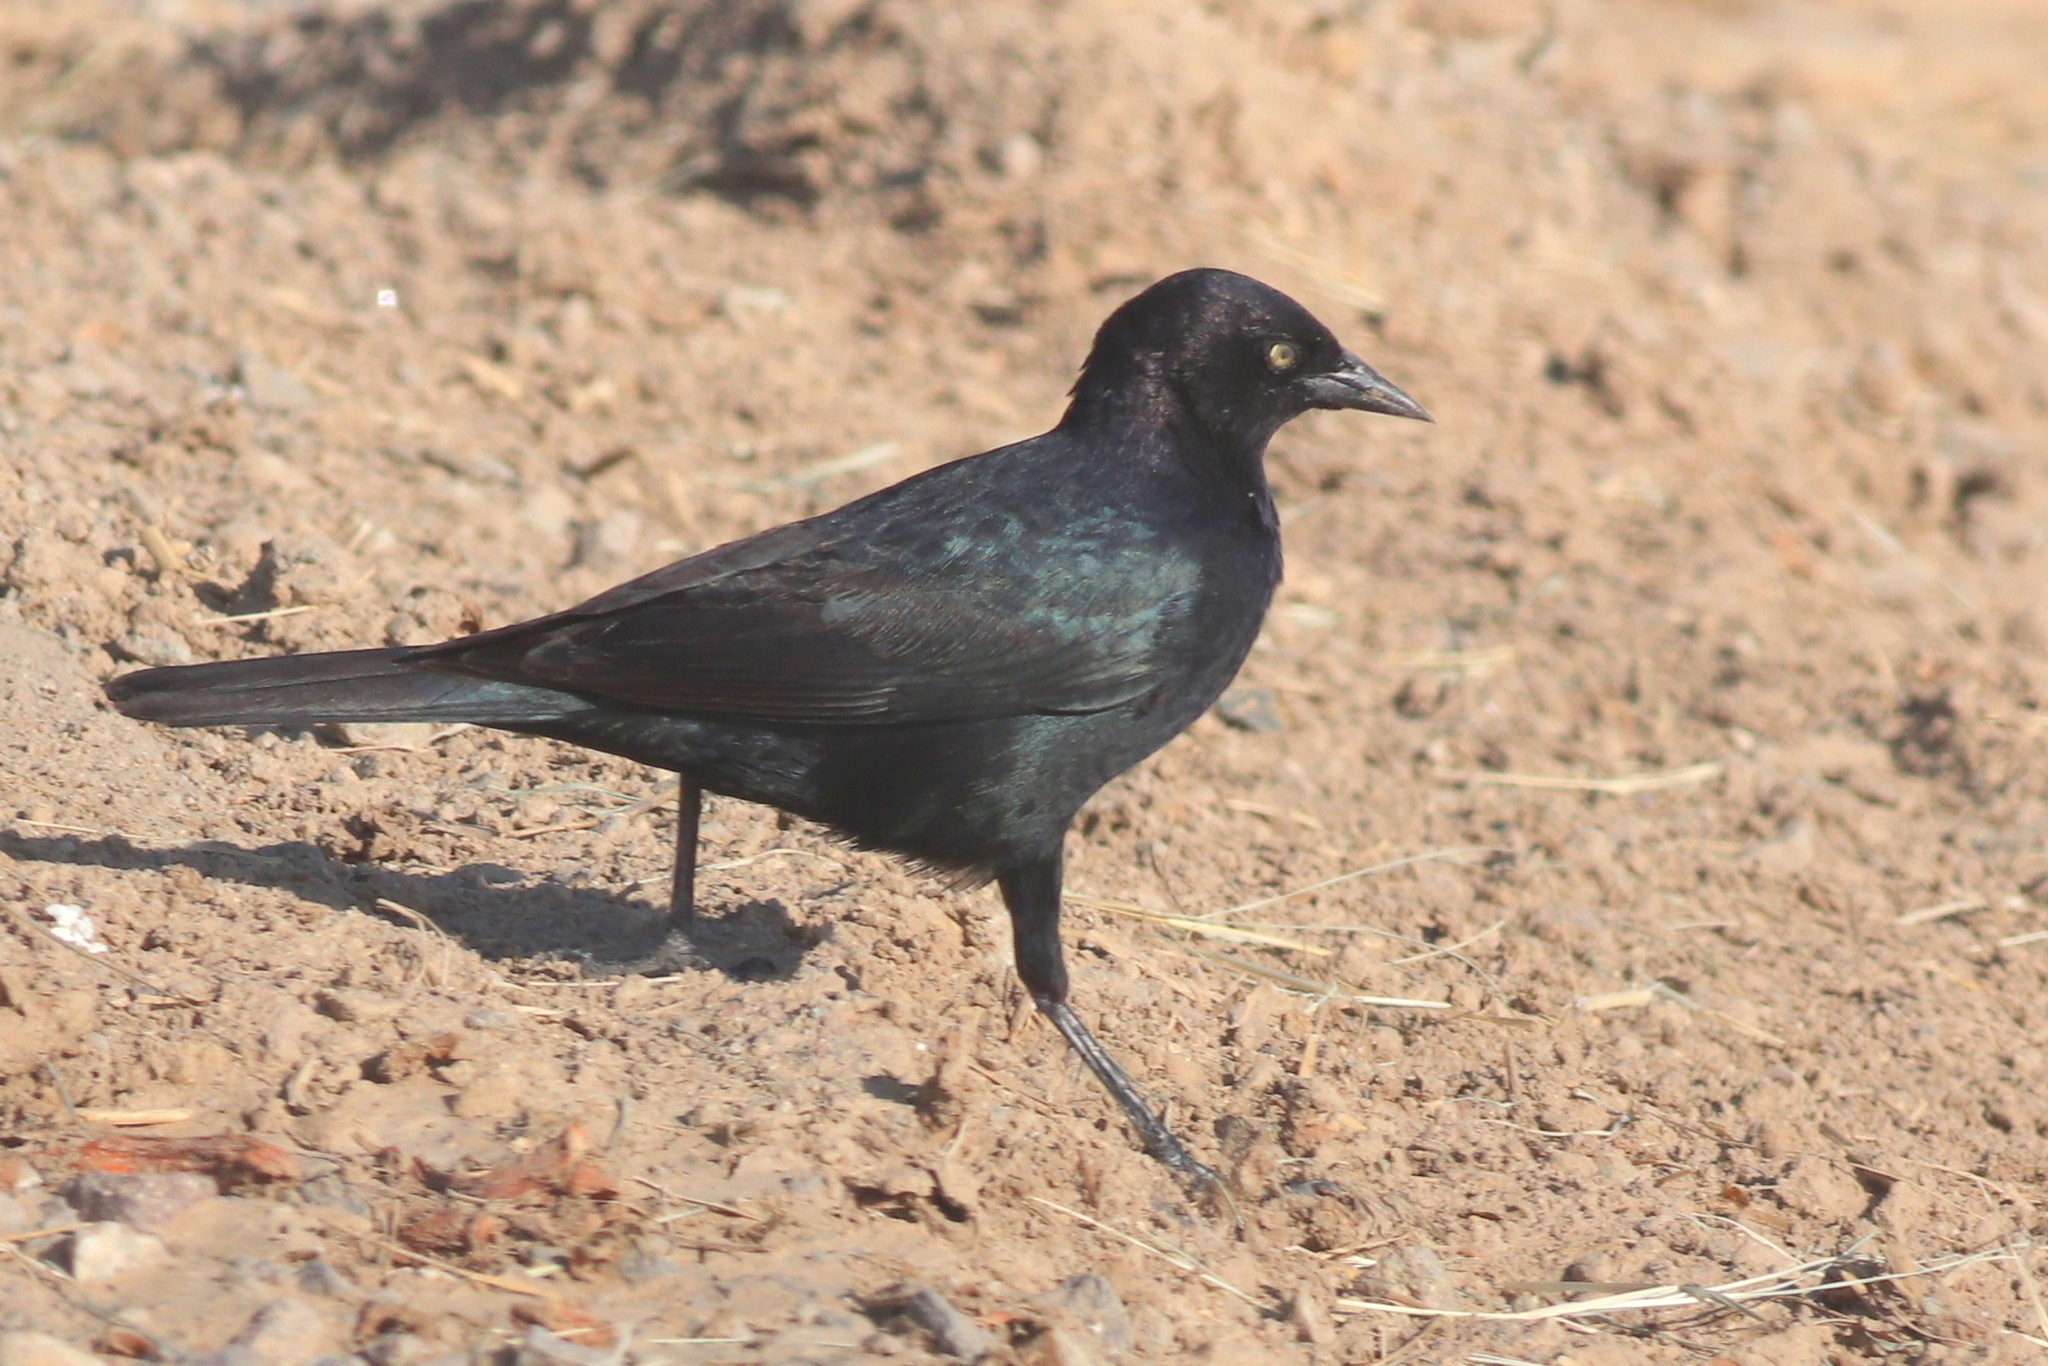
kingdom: Animalia
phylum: Chordata
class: Aves
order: Passeriformes
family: Icteridae
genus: Euphagus
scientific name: Euphagus cyanocephalus
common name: Brewer's blackbird
